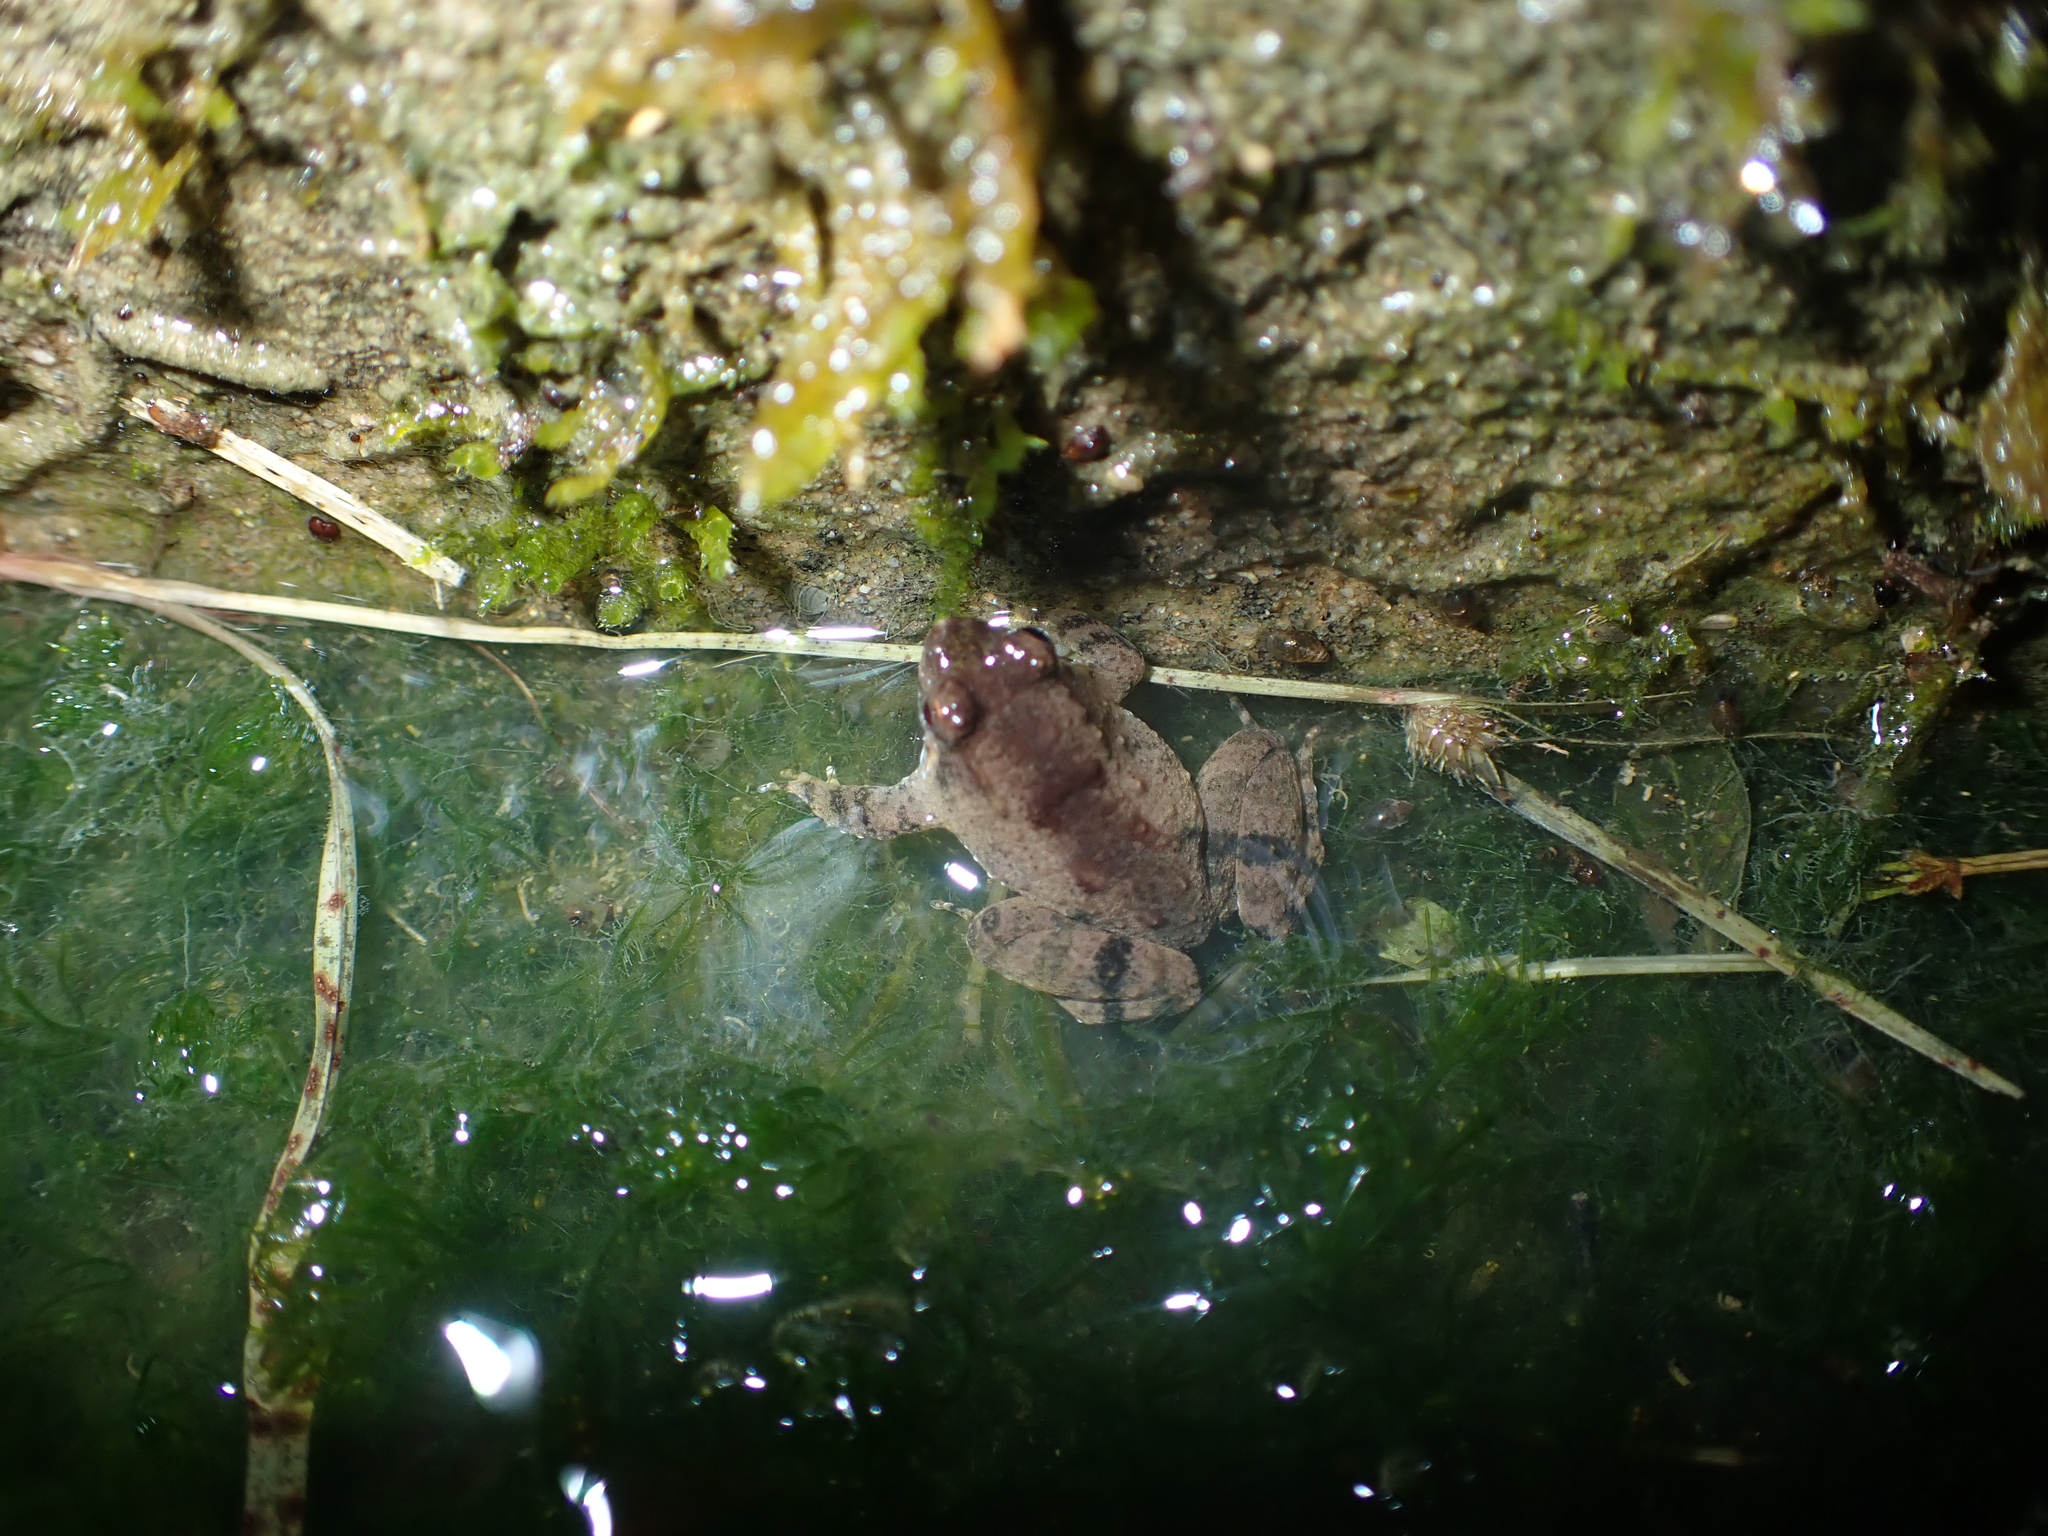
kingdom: Animalia
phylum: Chordata
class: Amphibia
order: Anura
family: Dicroglossidae
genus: Occidozyga
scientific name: Occidozyga baluensis
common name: Balu oriental frog
